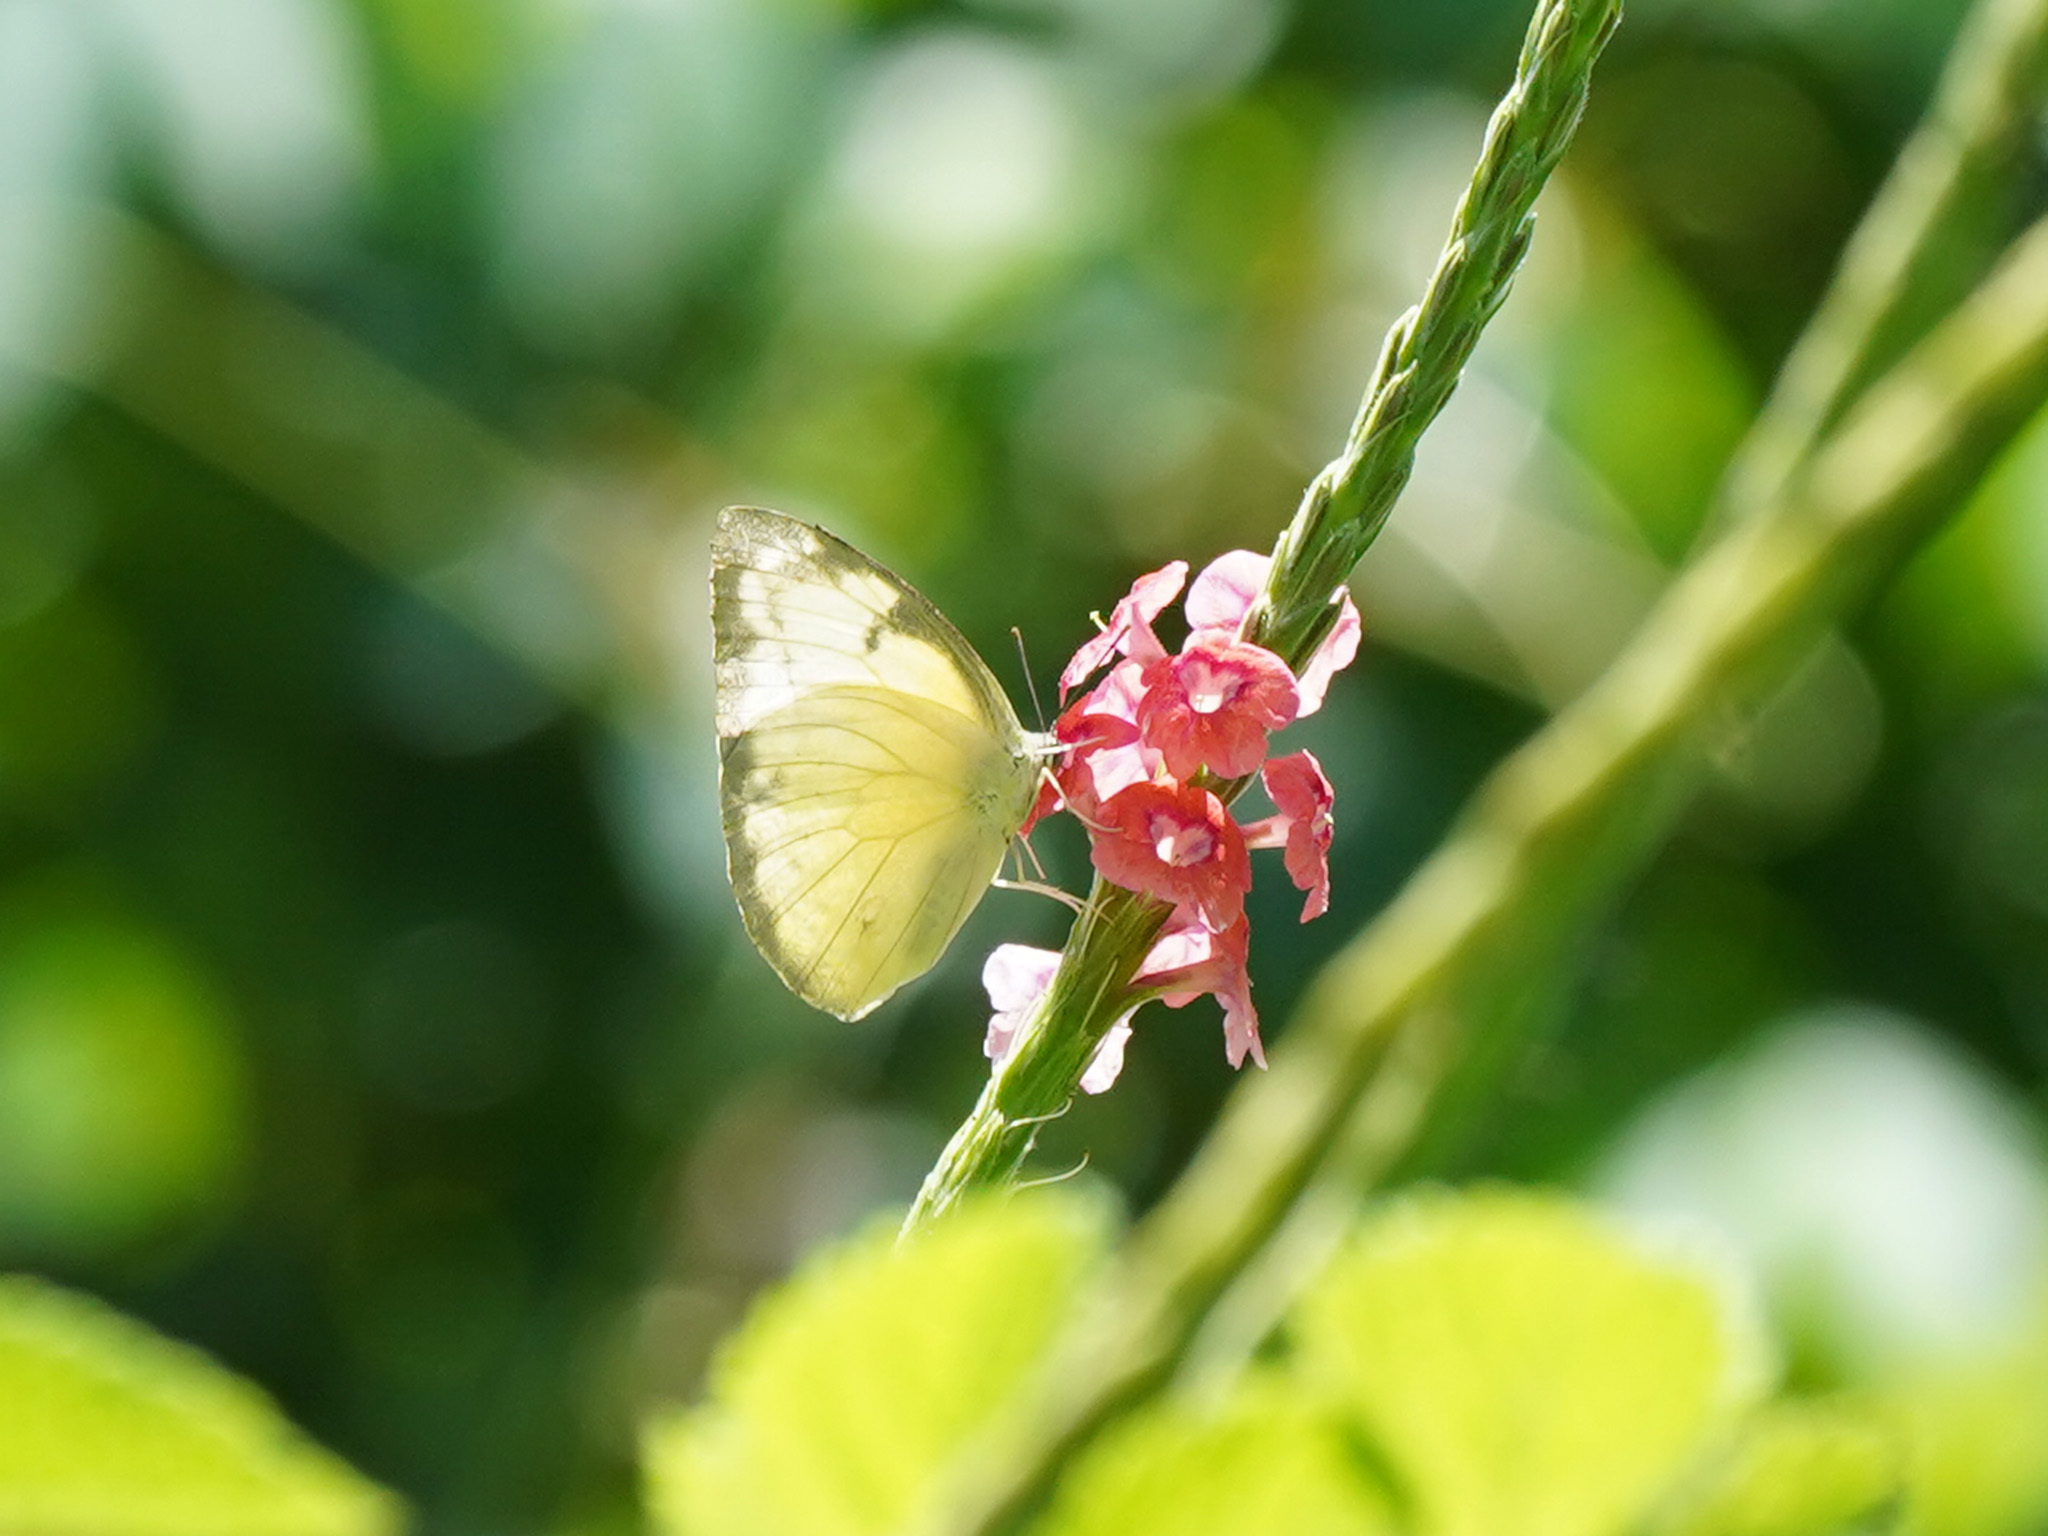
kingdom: Animalia
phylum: Arthropoda
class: Insecta
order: Lepidoptera
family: Pieridae
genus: Catopsilia
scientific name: Catopsilia pomona
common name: Common emigrant
